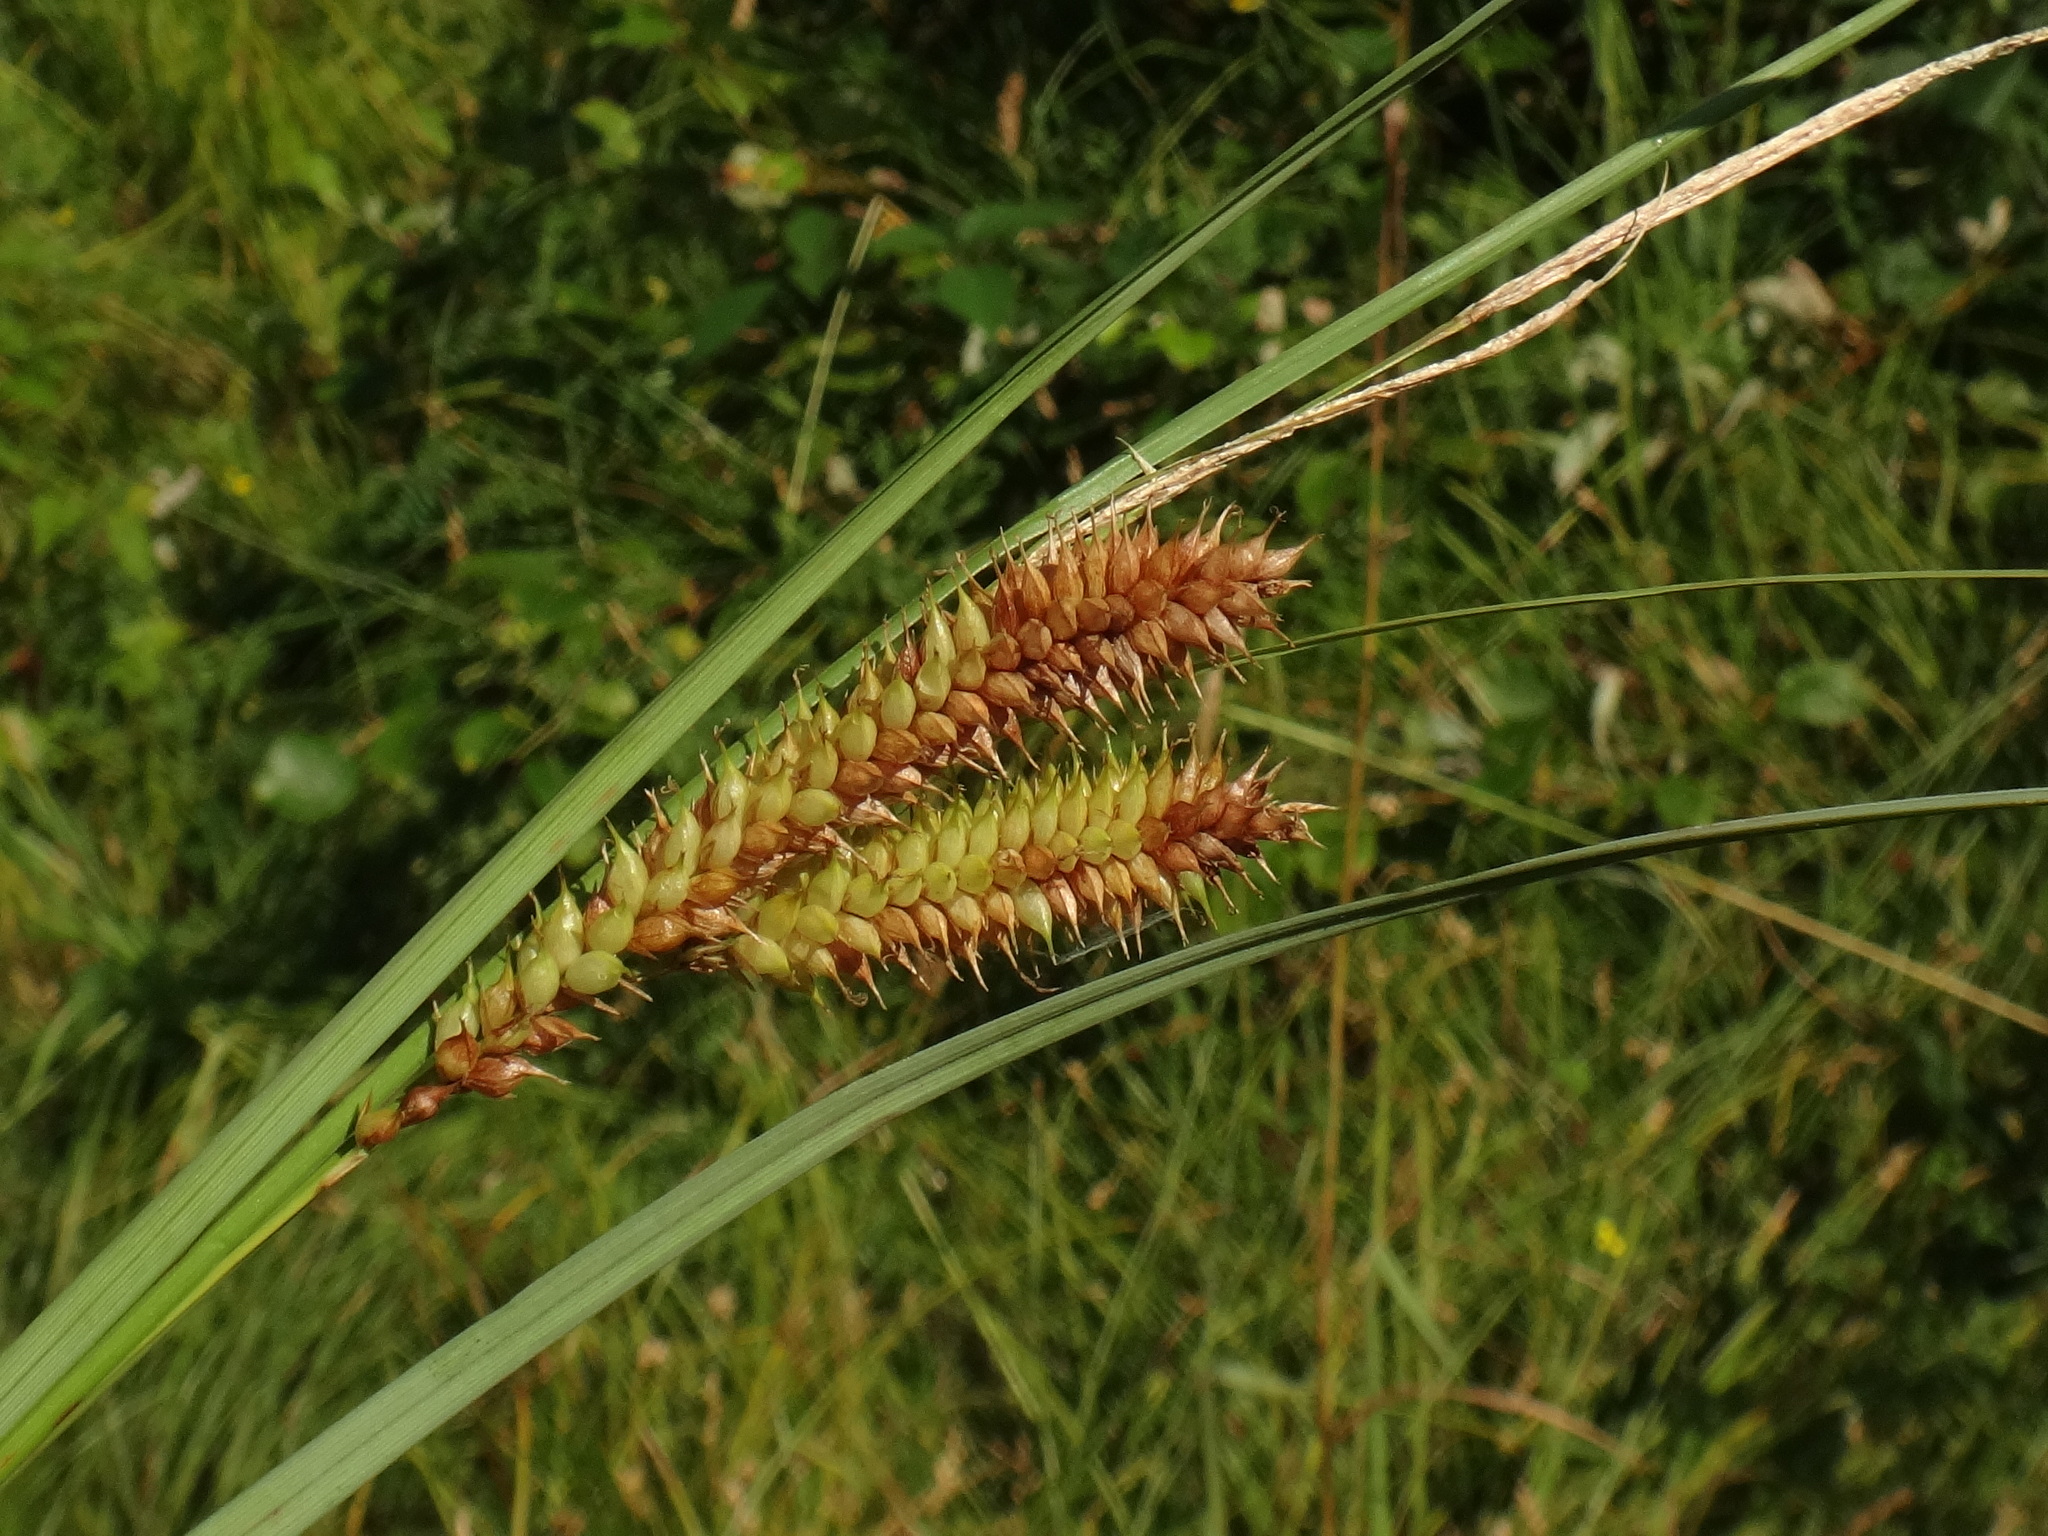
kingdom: Plantae
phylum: Tracheophyta
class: Liliopsida
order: Poales
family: Cyperaceae
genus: Carex
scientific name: Carex rostrata
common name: Bottle sedge
